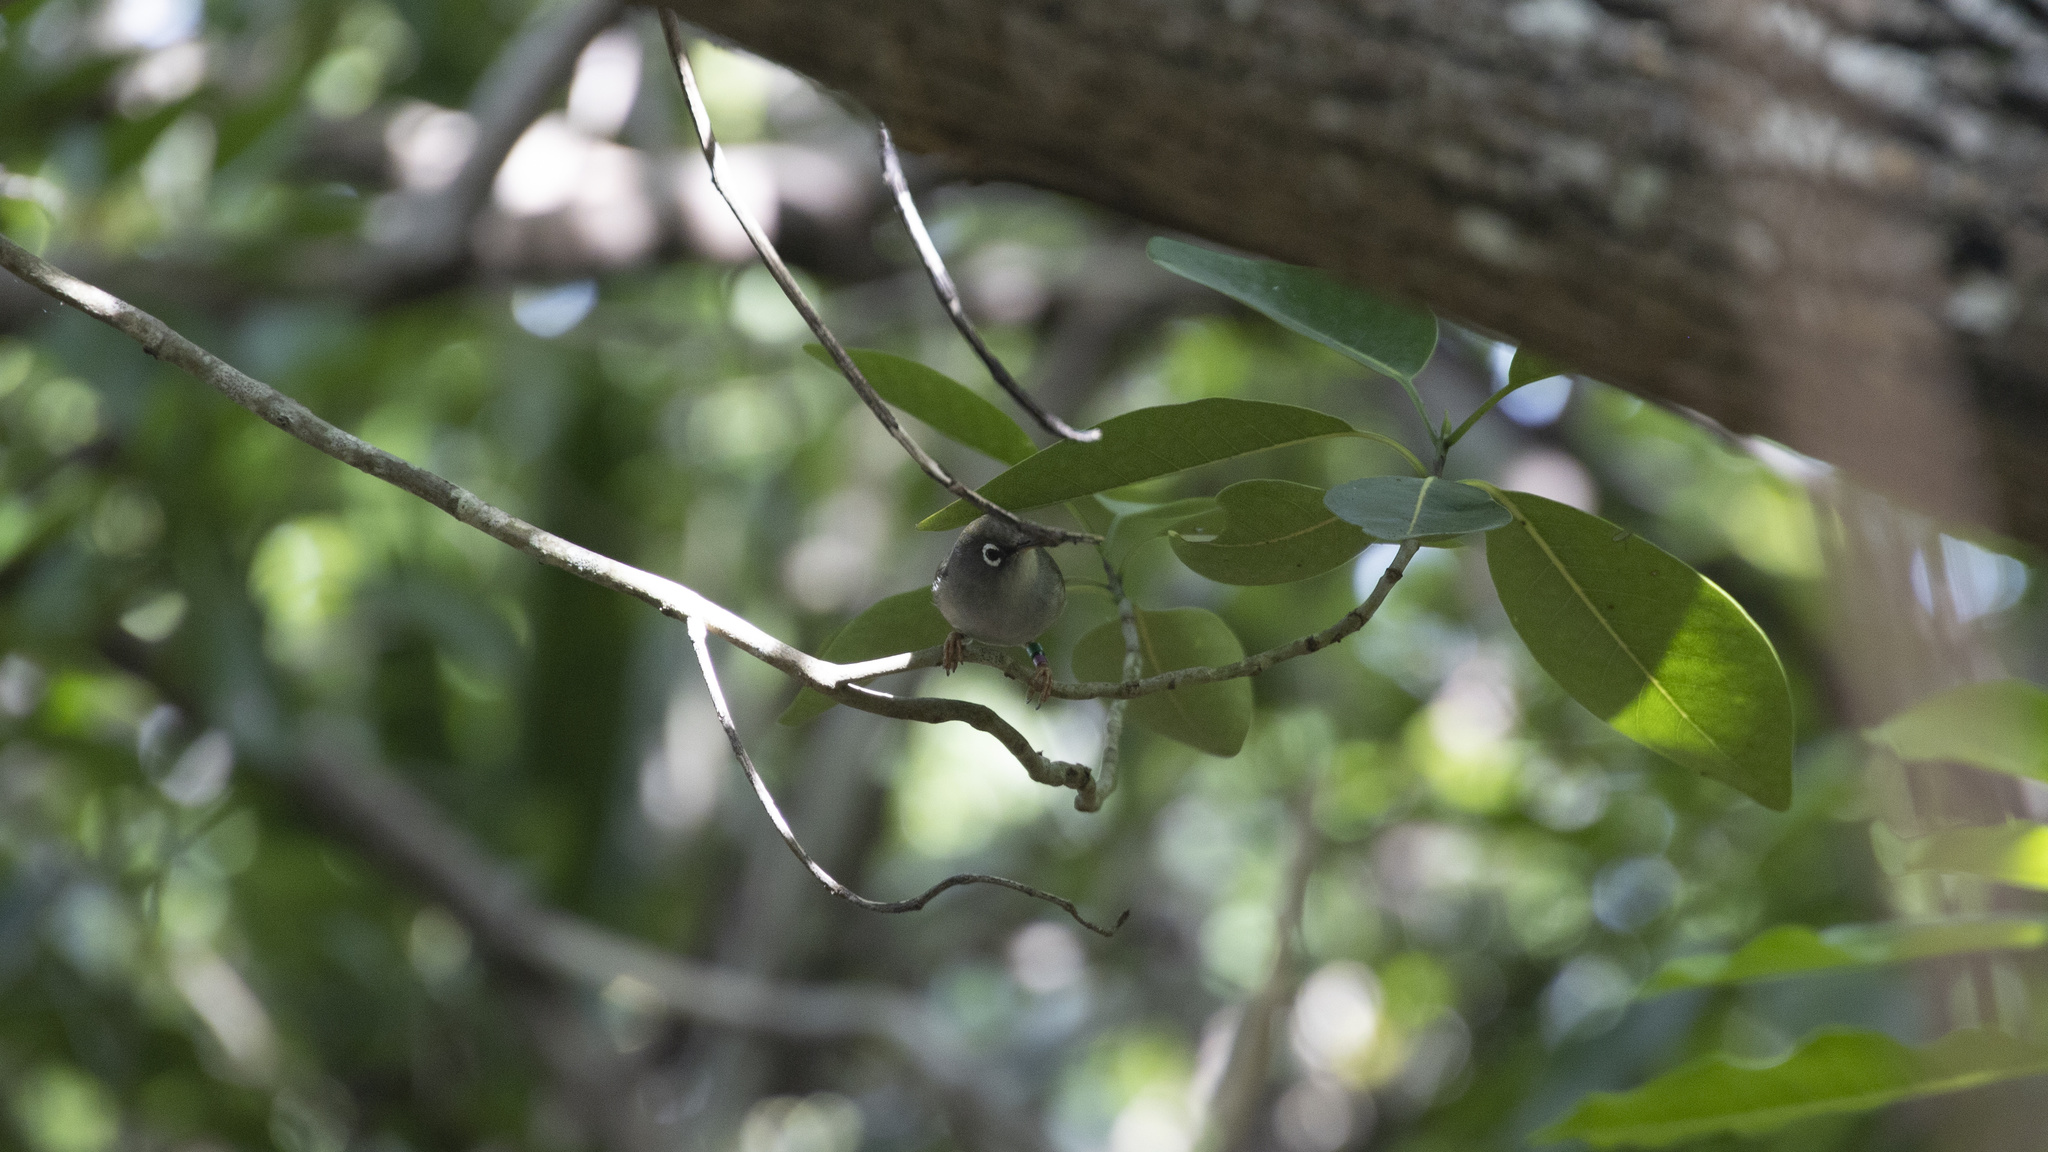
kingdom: Animalia
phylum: Chordata
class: Aves
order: Passeriformes
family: Zosteropidae
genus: Zosterops
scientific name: Zosterops chloronothos
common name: Mauritius olive white-eye
